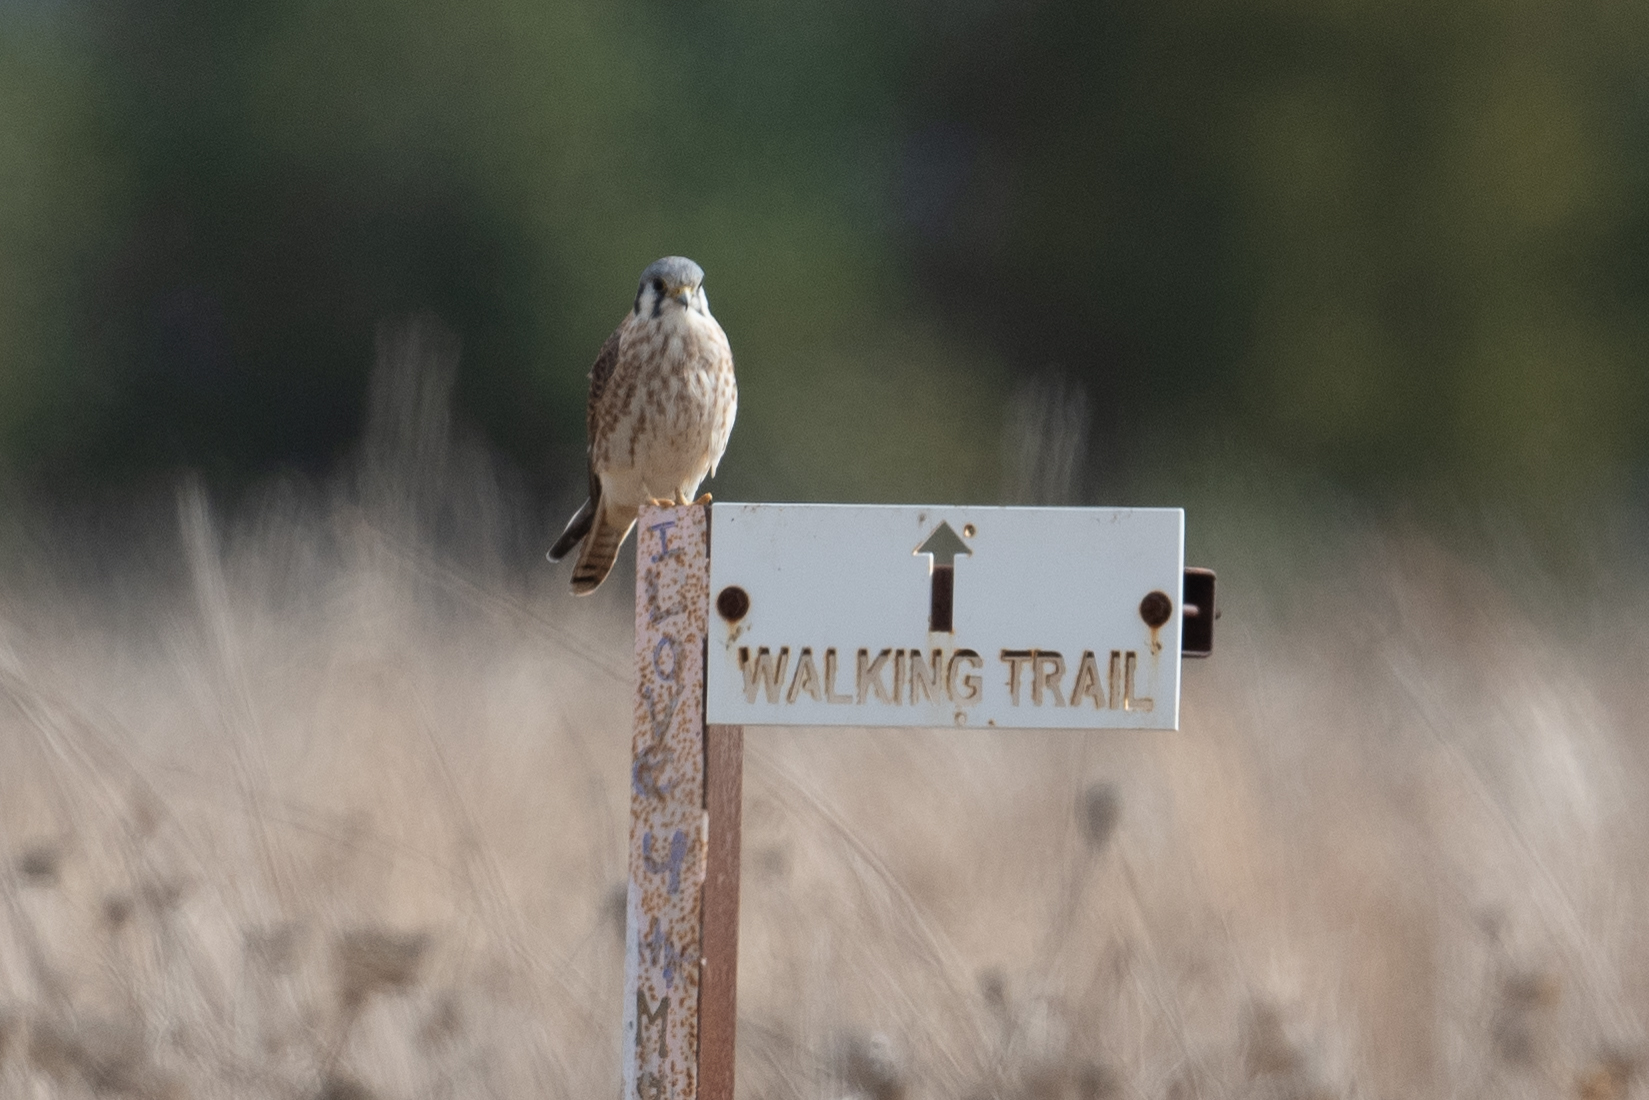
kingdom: Animalia
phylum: Chordata
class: Aves
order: Falconiformes
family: Falconidae
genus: Falco
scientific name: Falco sparverius
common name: American kestrel
